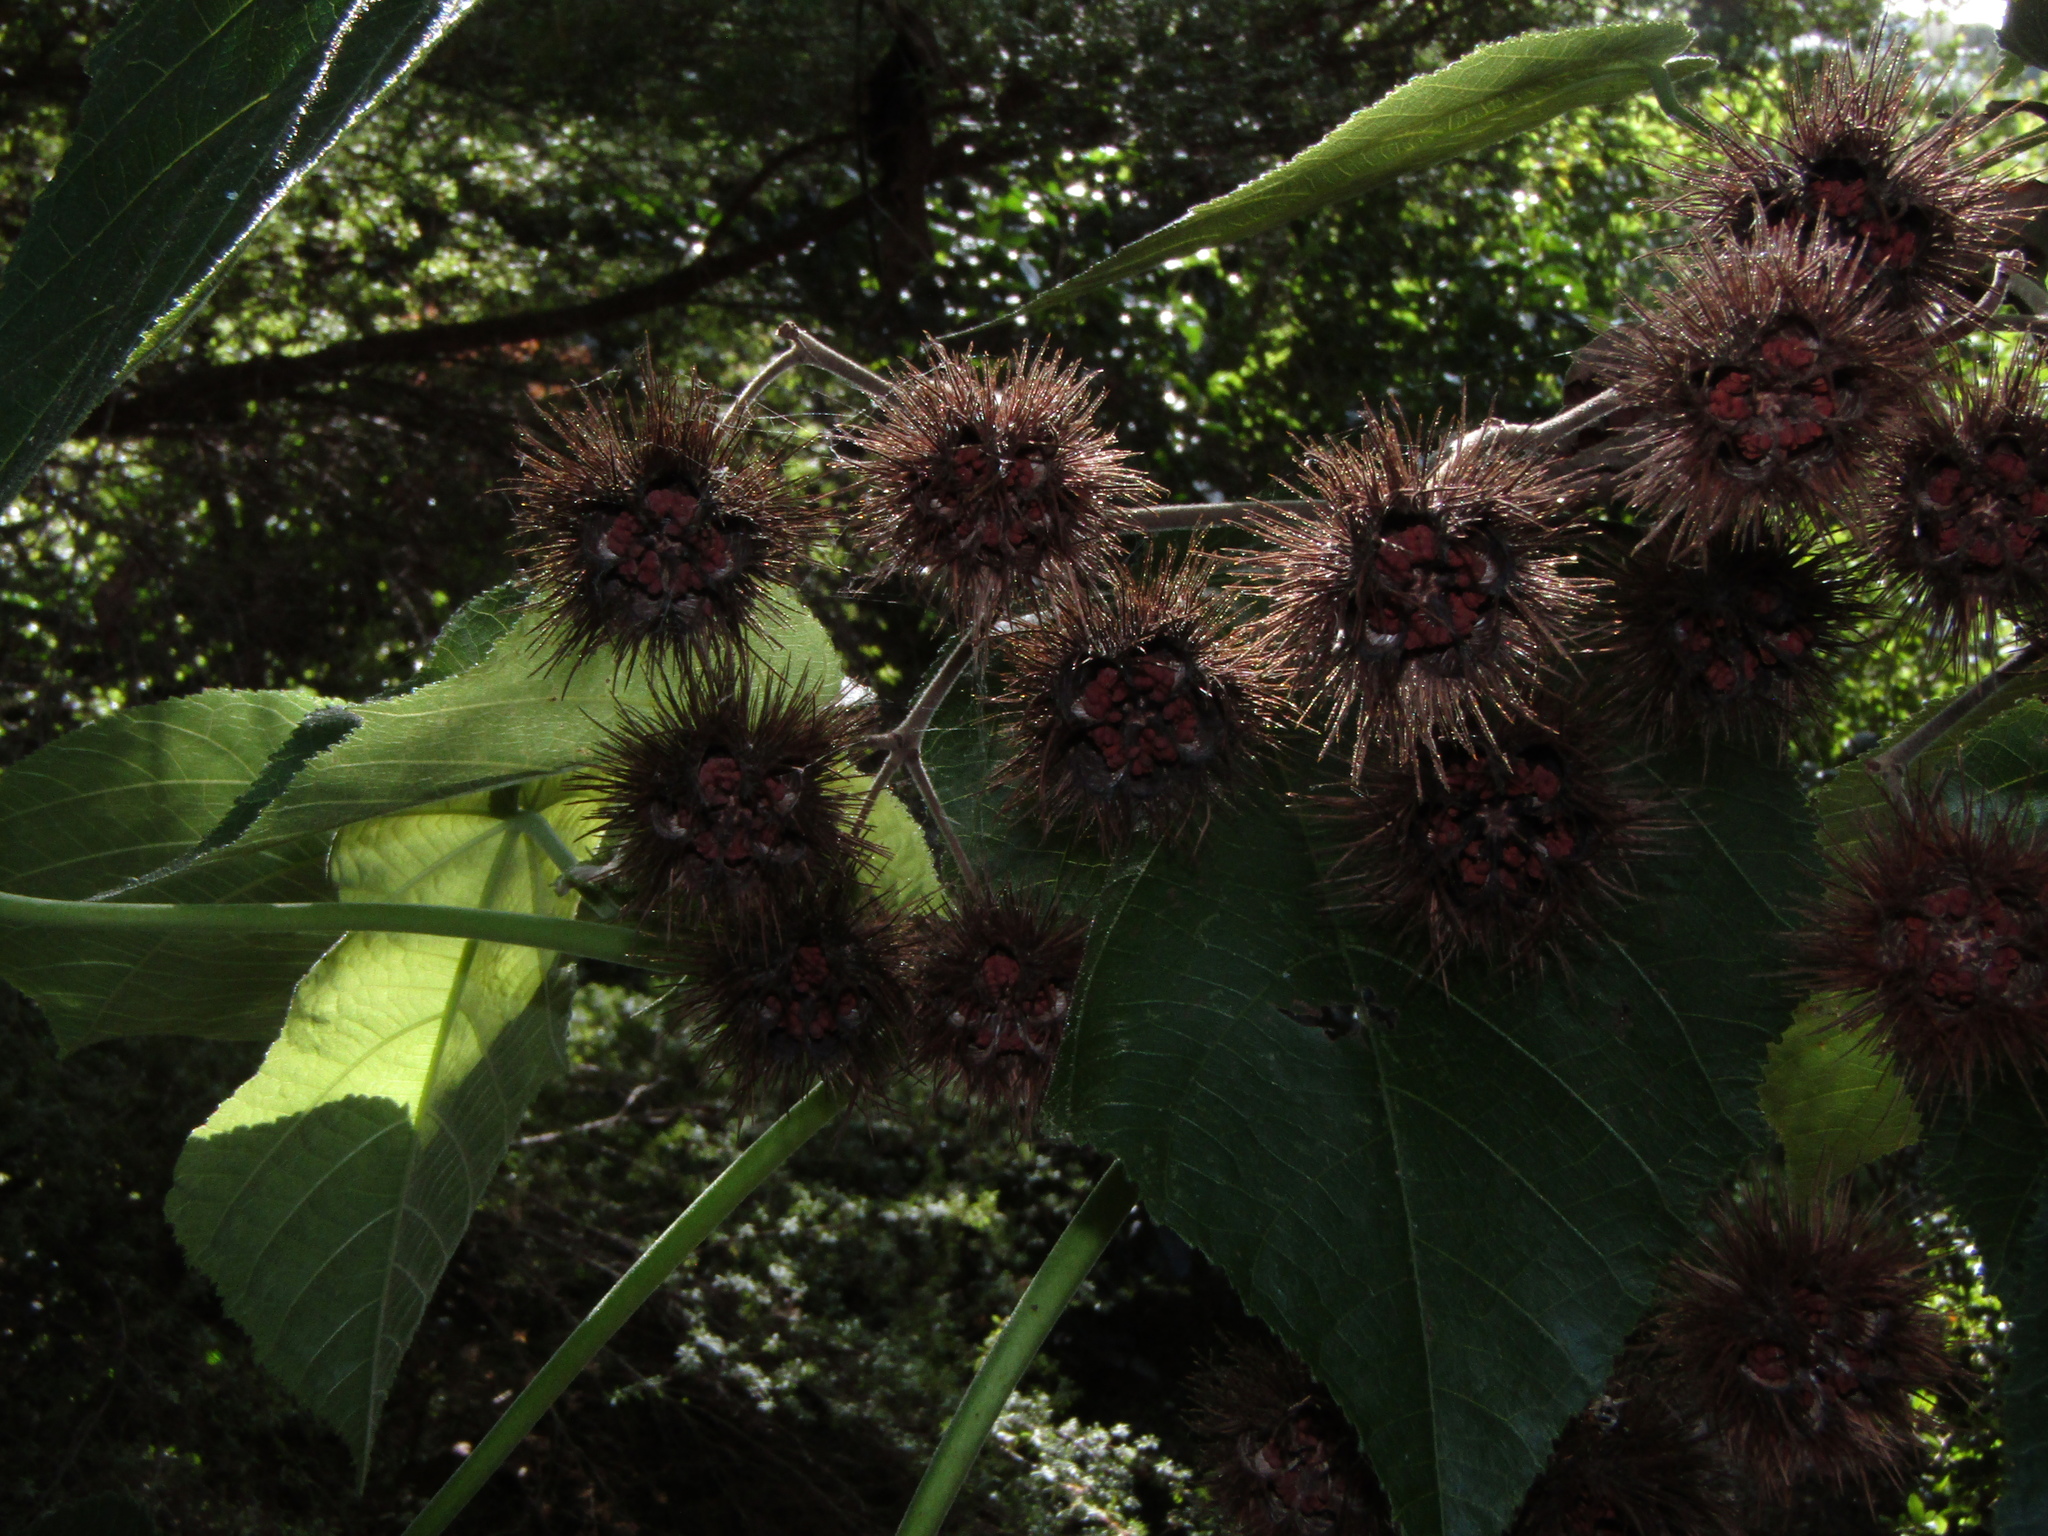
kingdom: Plantae
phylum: Tracheophyta
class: Magnoliopsida
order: Malvales
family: Malvaceae
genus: Entelea
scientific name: Entelea arborescens
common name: New zealand-mulberry
